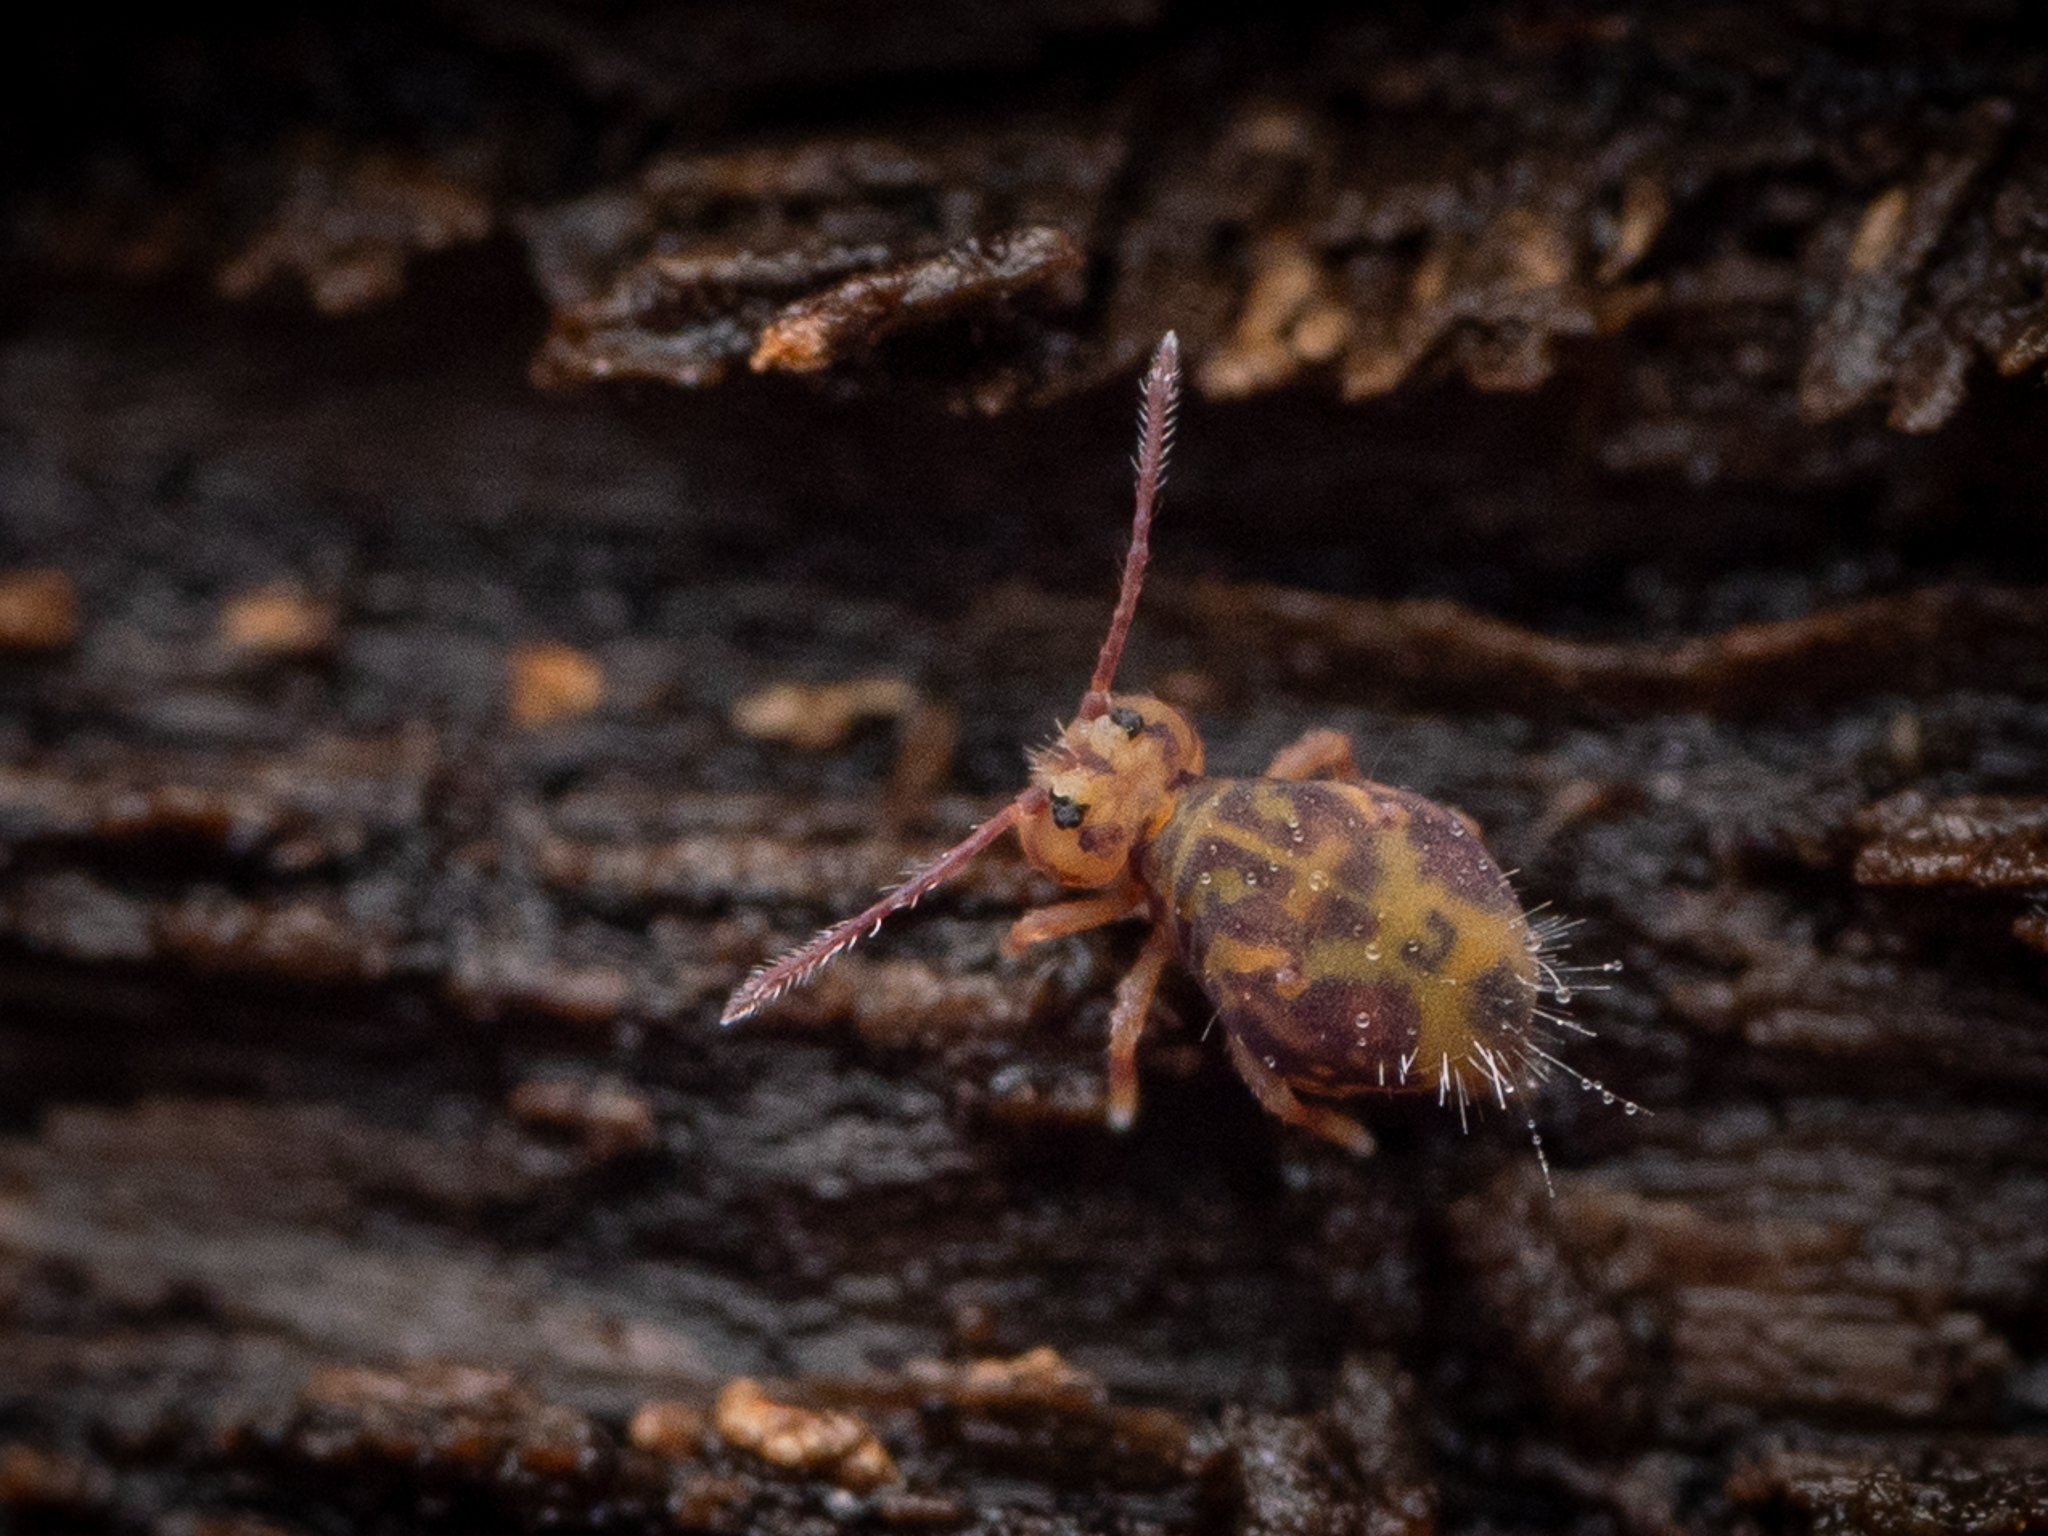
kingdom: Animalia
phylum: Arthropoda
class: Collembola
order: Symphypleona
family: Dicyrtomidae
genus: Dicyrtomina
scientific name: Dicyrtomina ornata
